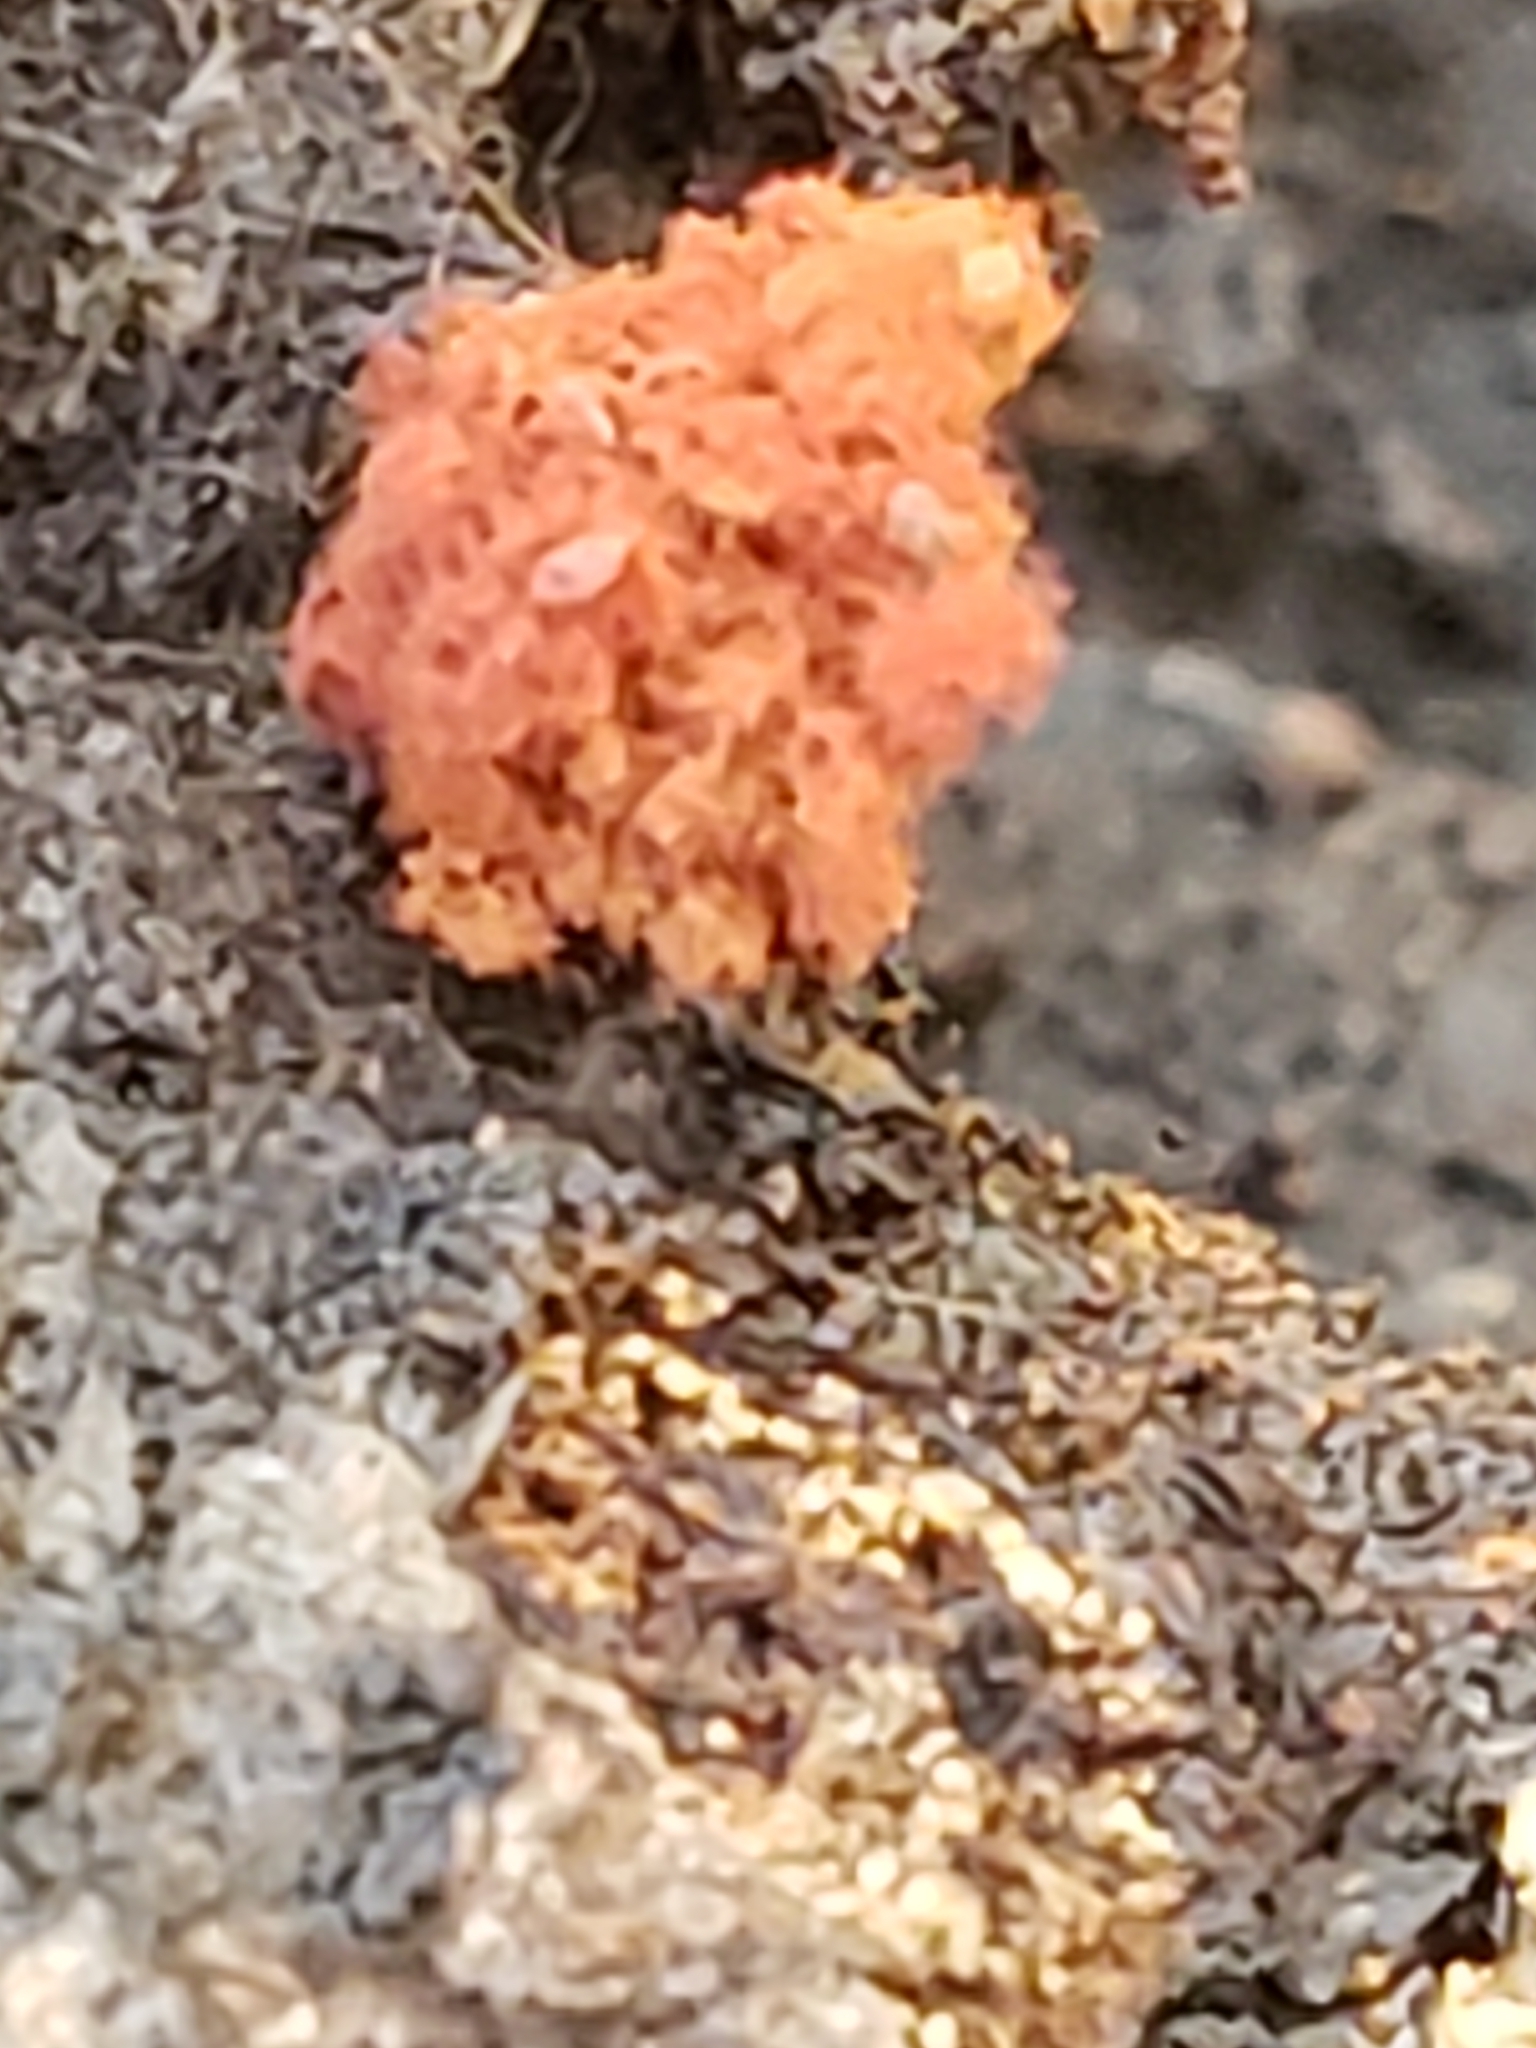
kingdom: Protozoa
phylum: Mycetozoa
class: Myxomycetes
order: Trichiales
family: Trichiaceae
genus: Metatrichia
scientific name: Metatrichia vesparia
